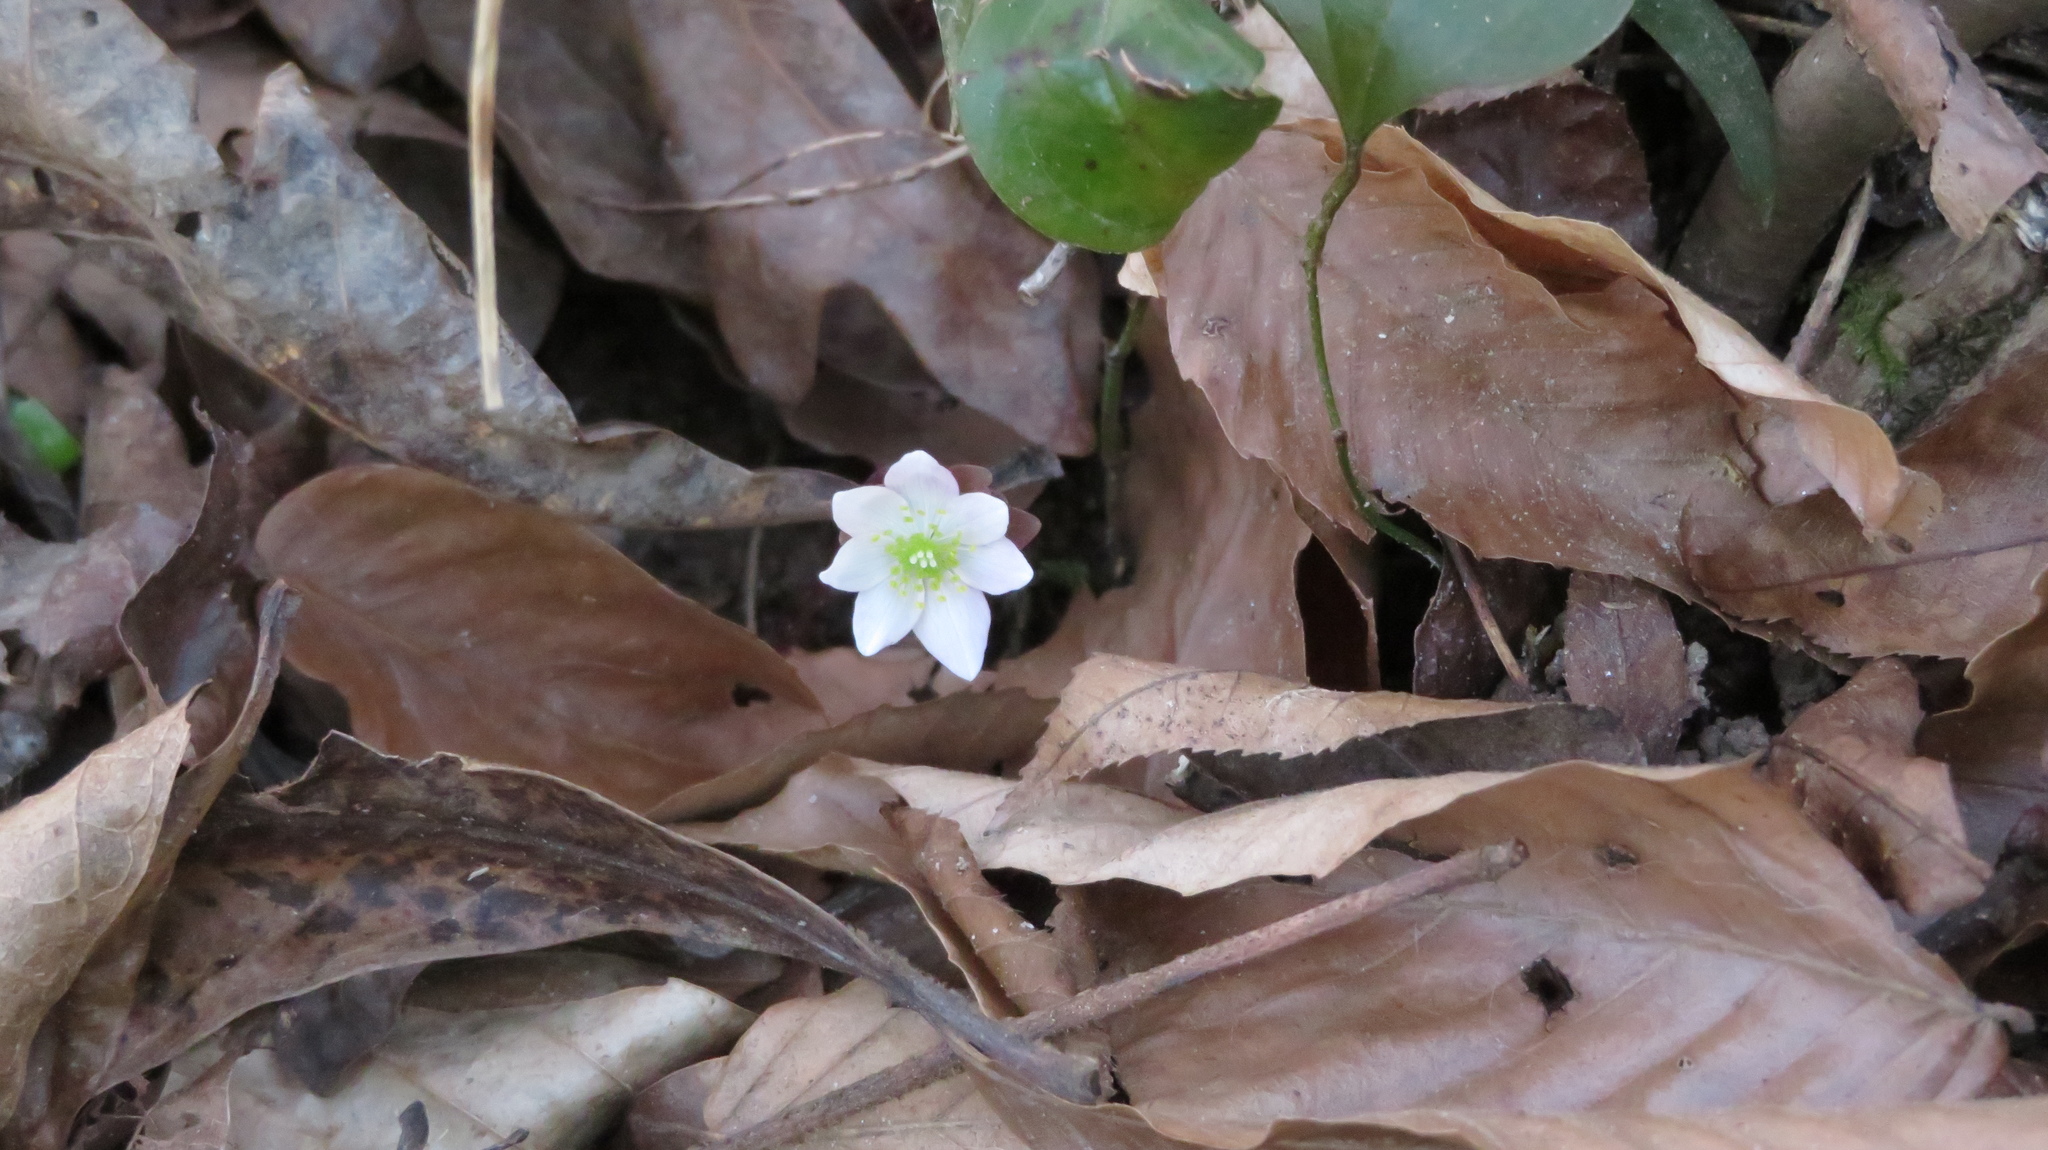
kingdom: Plantae
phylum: Tracheophyta
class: Magnoliopsida
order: Ranunculales
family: Ranunculaceae
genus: Thalictrum
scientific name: Thalictrum thalictroides
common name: Rue-anemone
